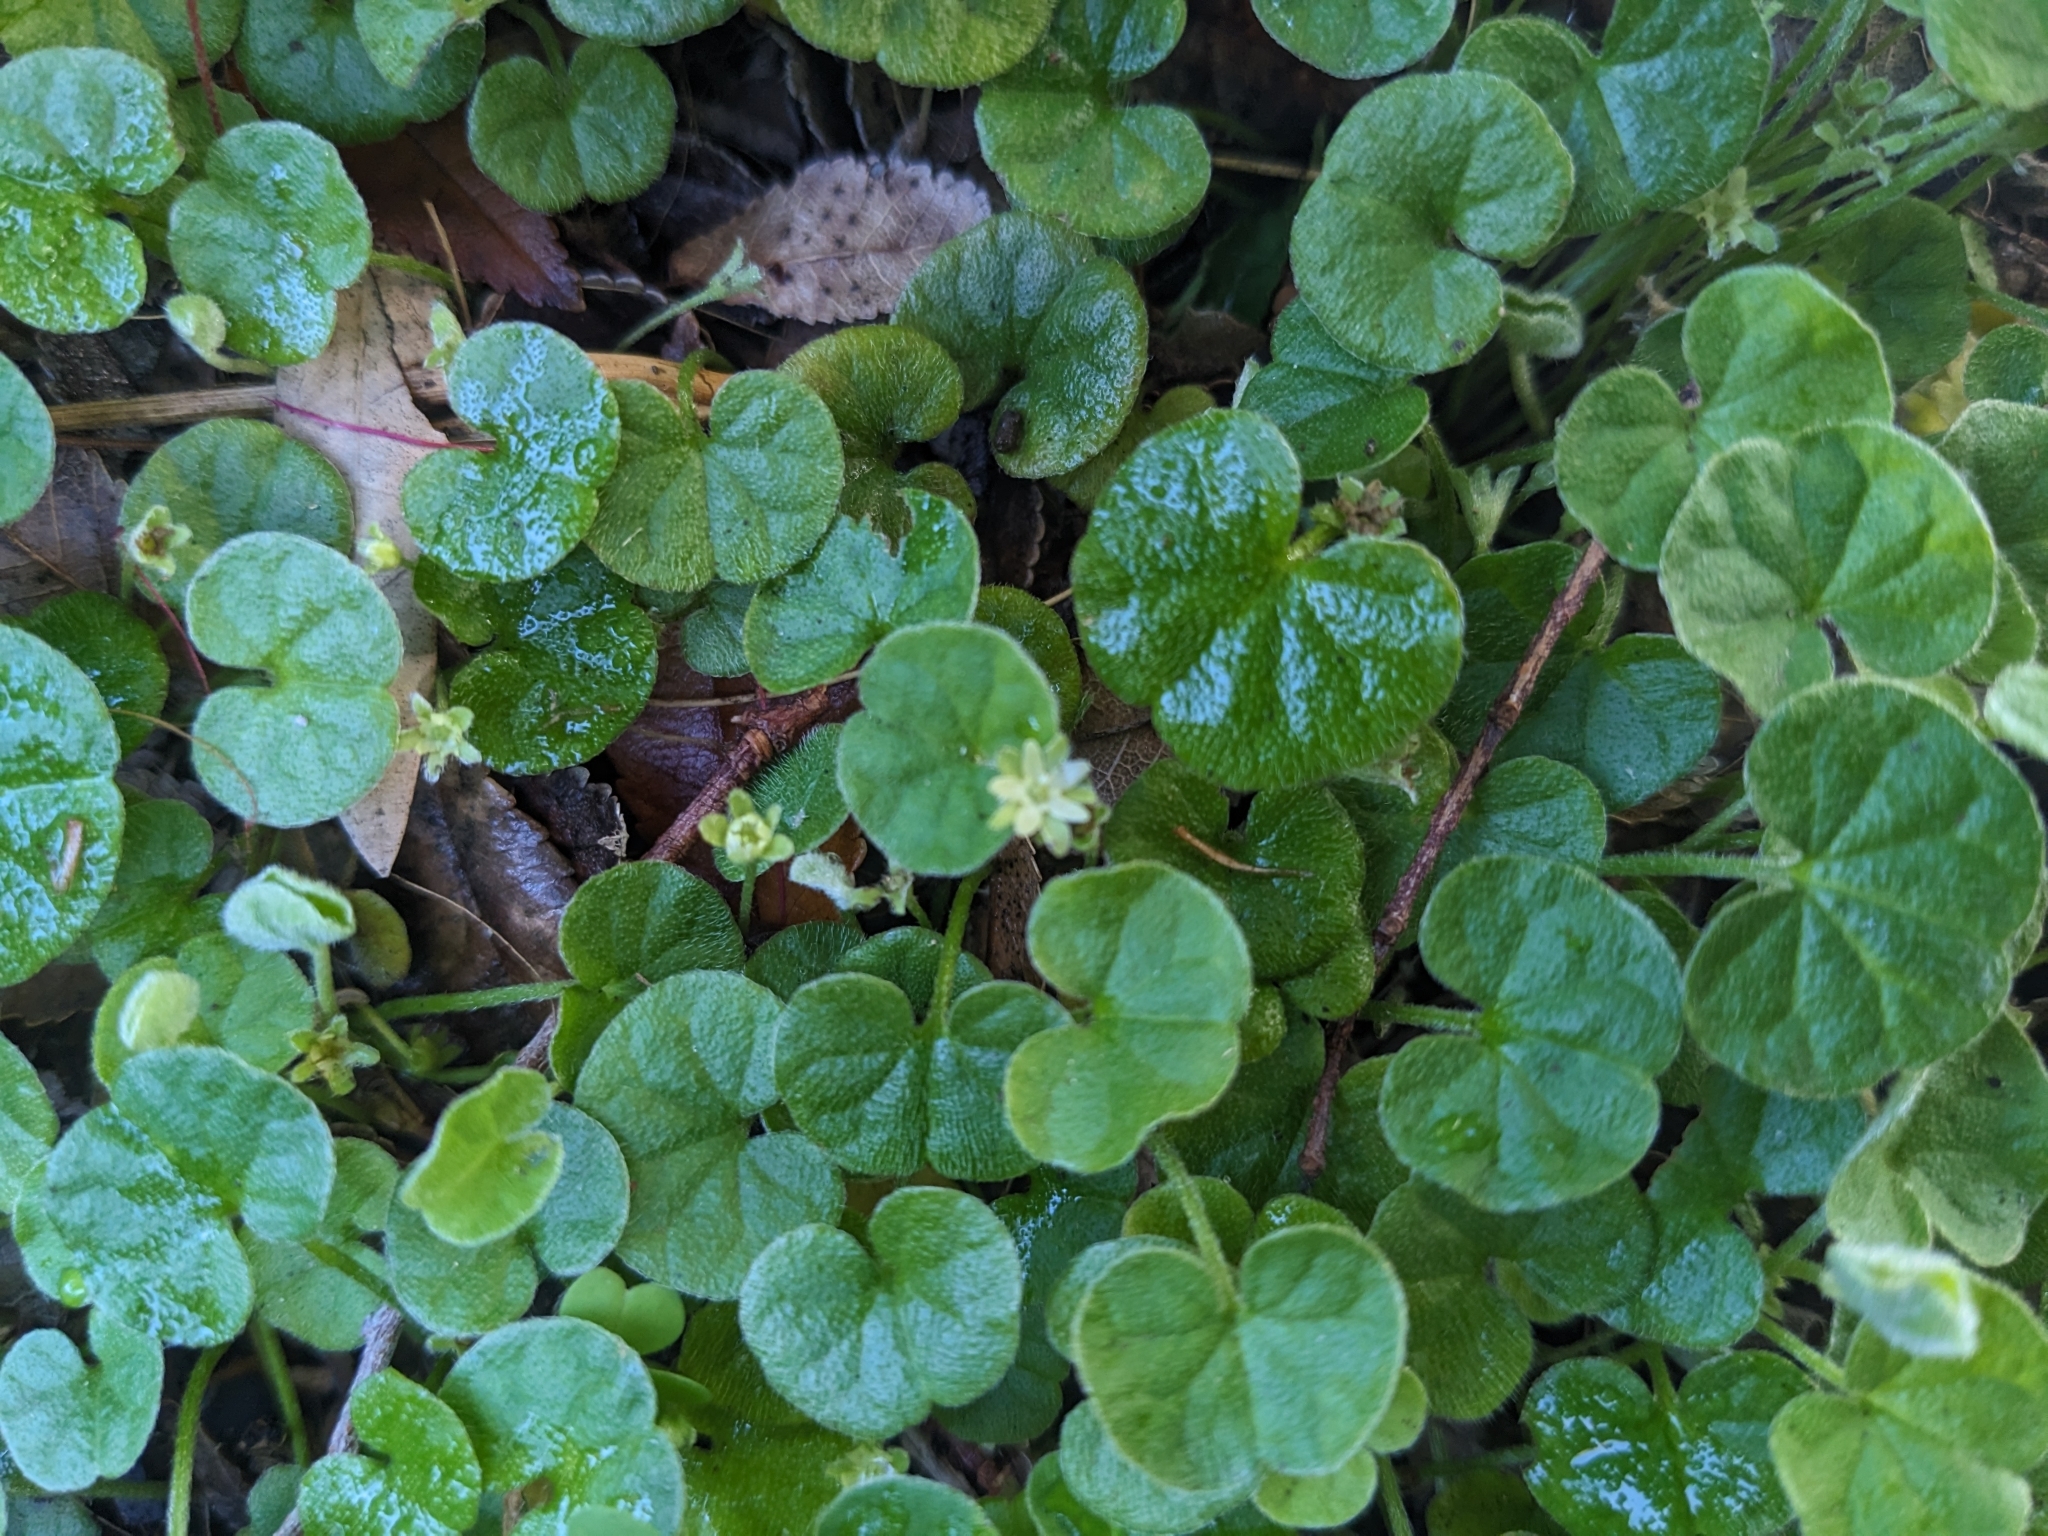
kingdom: Plantae
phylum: Tracheophyta
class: Magnoliopsida
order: Solanales
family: Convolvulaceae
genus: Dichondra
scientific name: Dichondra repens
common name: Kidneyweed
